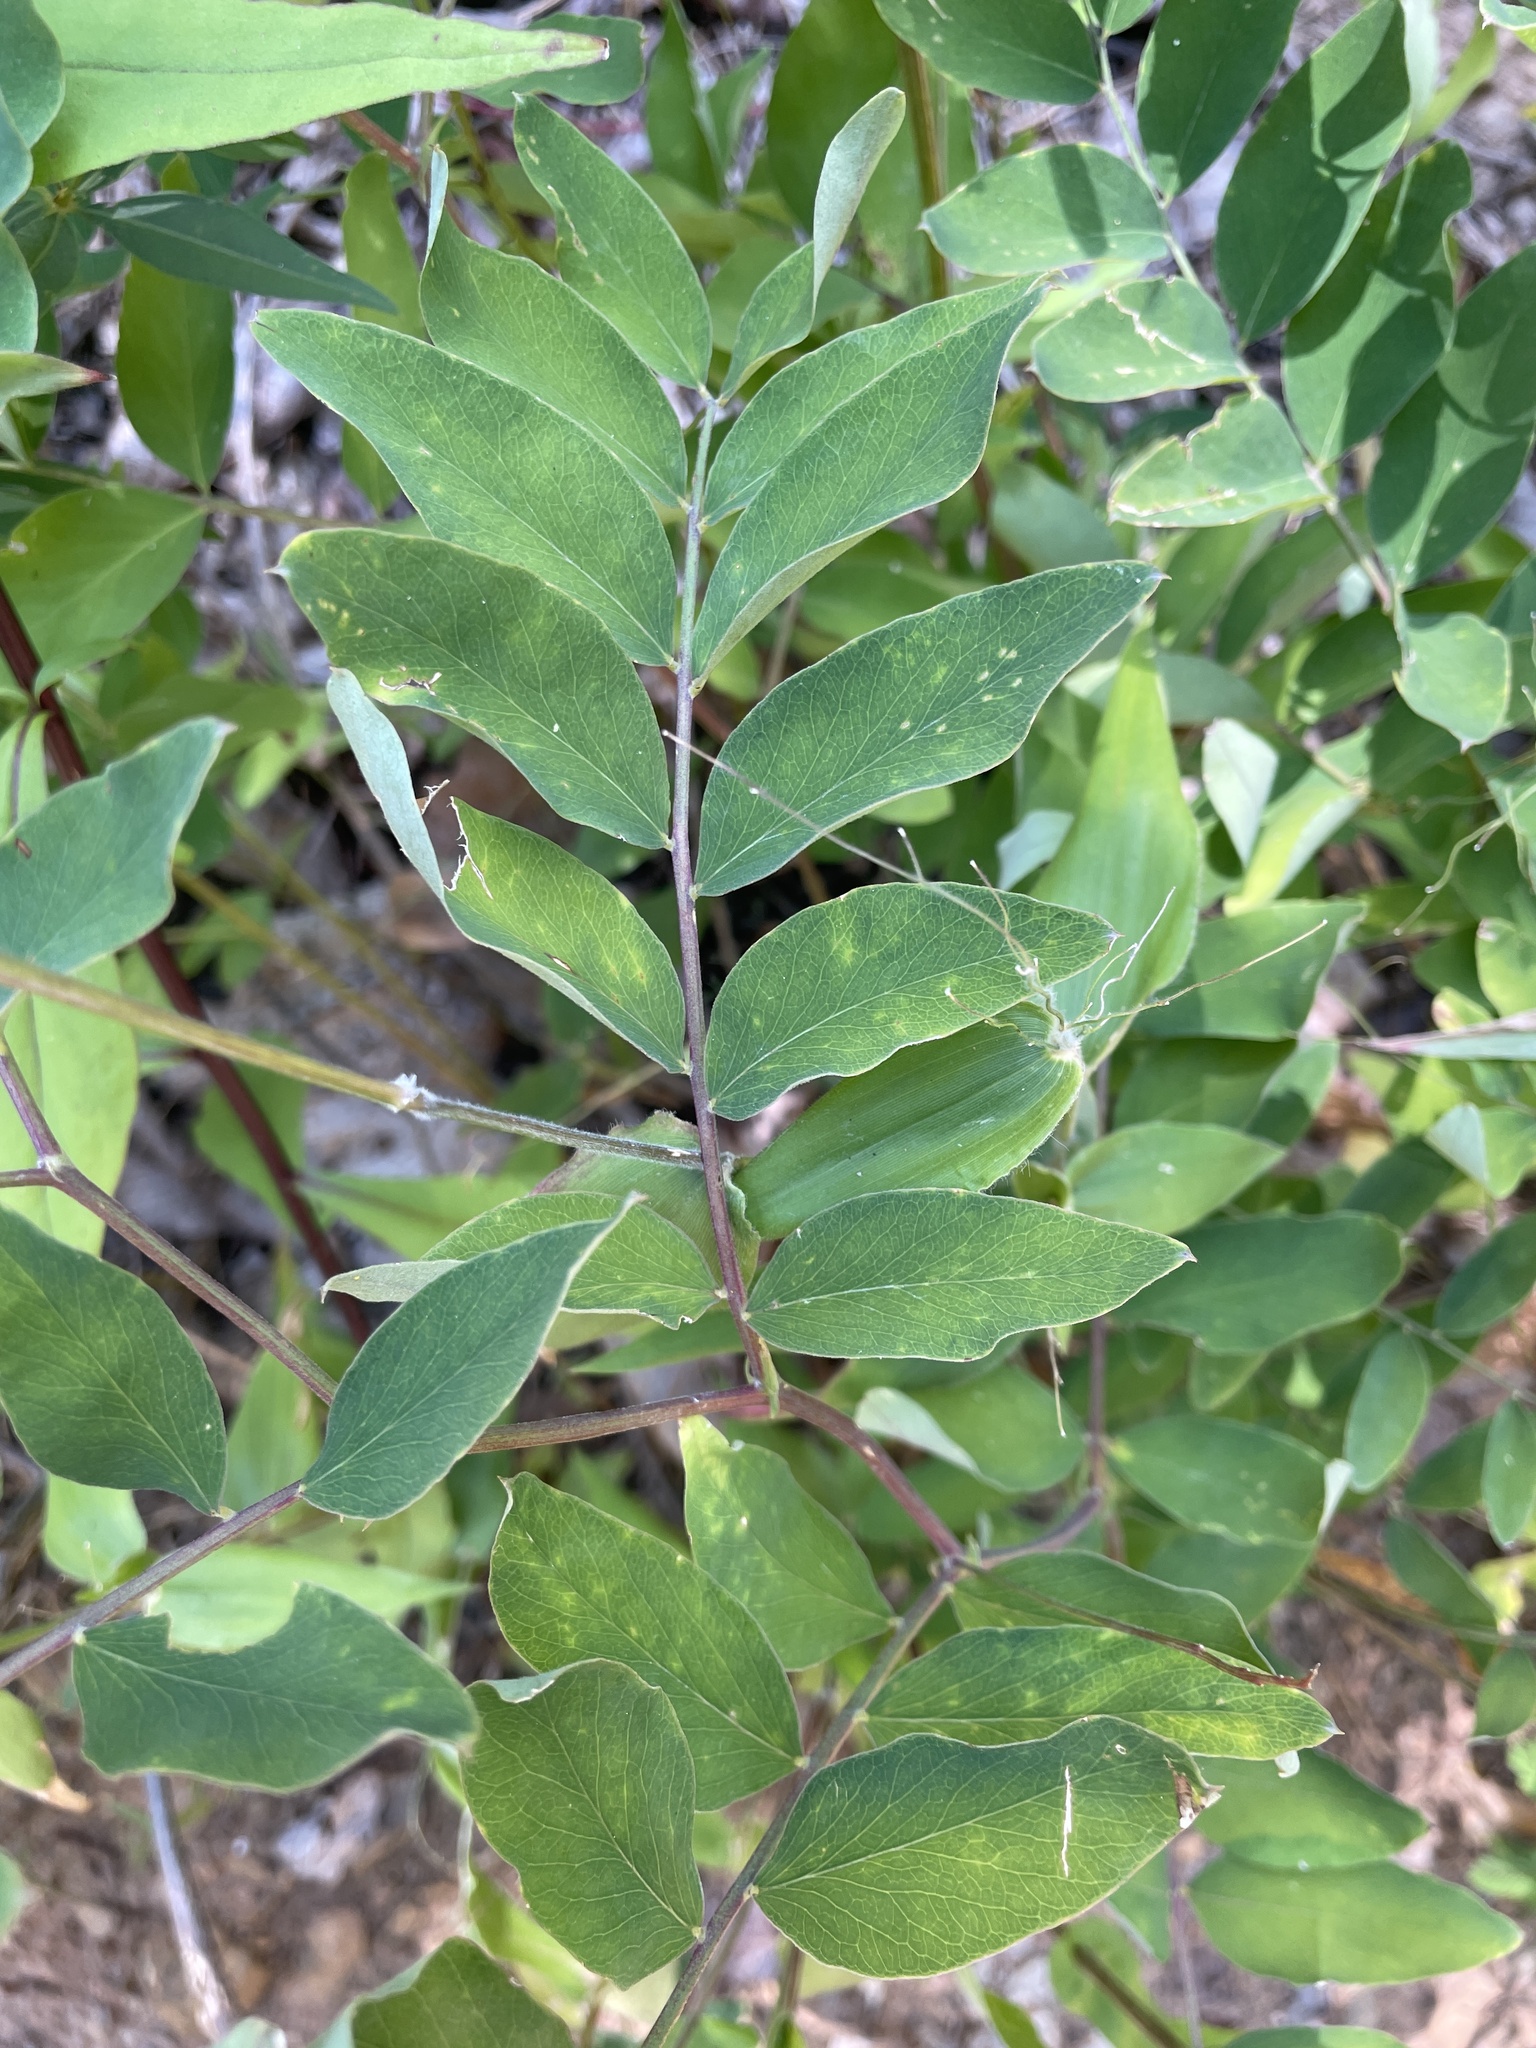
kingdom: Plantae
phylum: Tracheophyta
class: Magnoliopsida
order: Fabales
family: Fabaceae
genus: Lathyrus
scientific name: Lathyrus venosus
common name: Forest-pea
